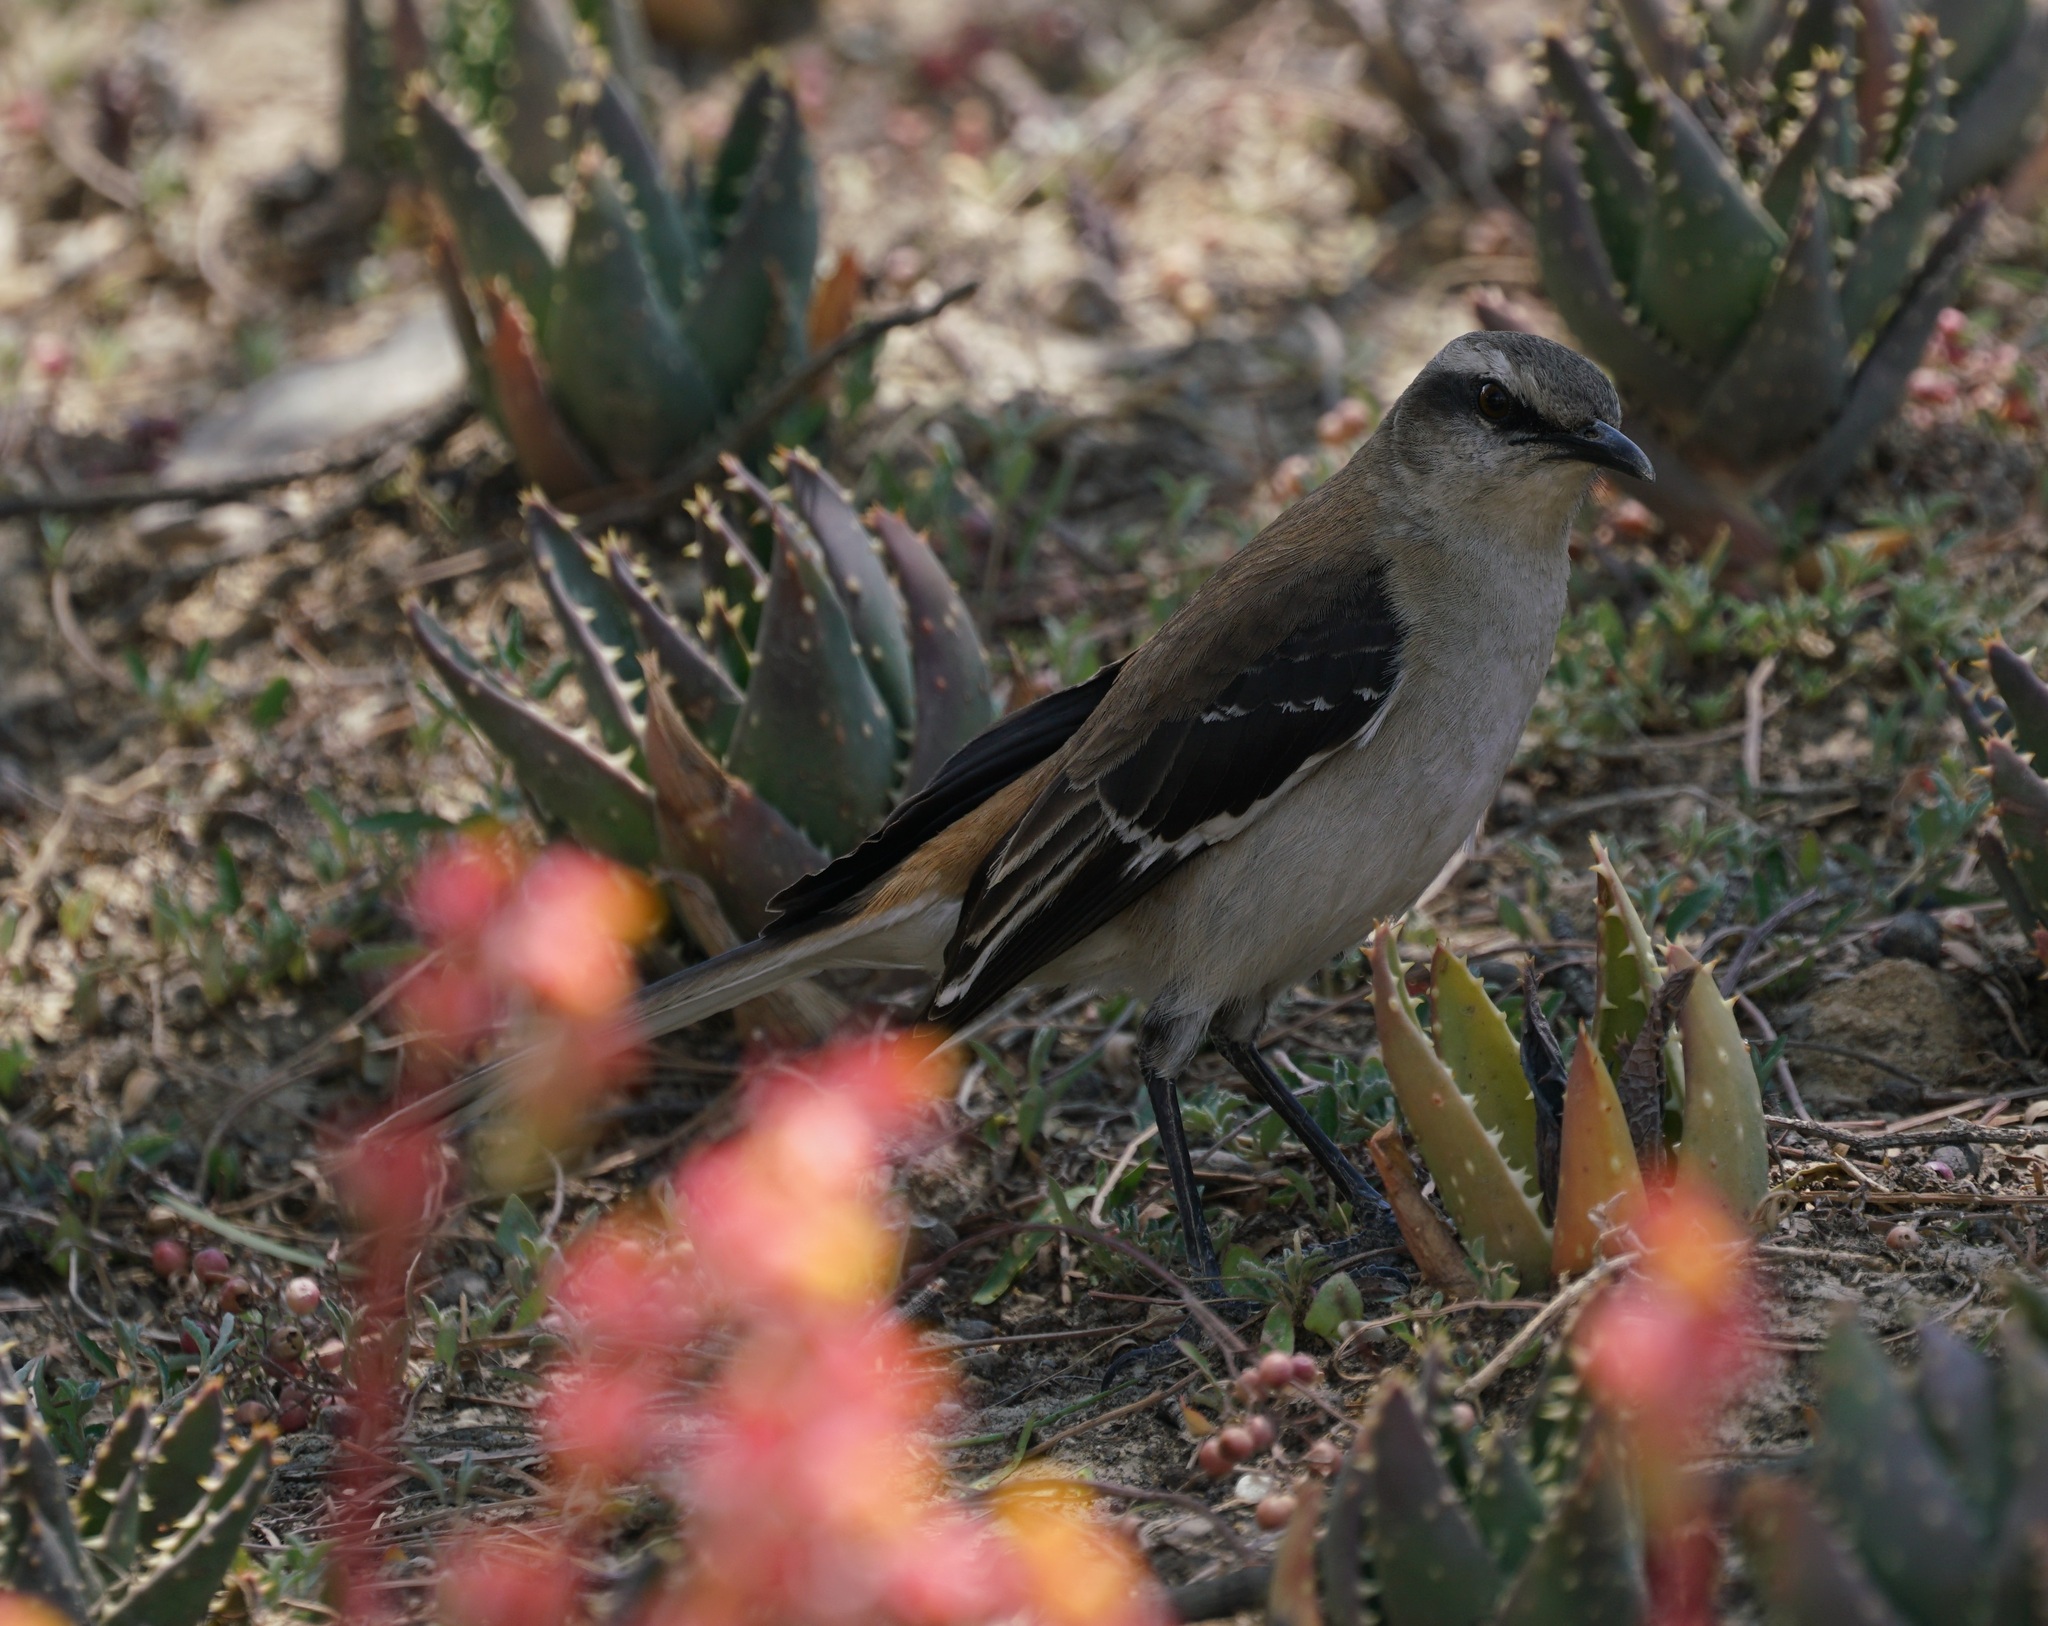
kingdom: Animalia
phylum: Chordata
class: Aves
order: Passeriformes
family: Mimidae
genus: Mimus
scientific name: Mimus dorsalis
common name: Brown-backed mockingbird
